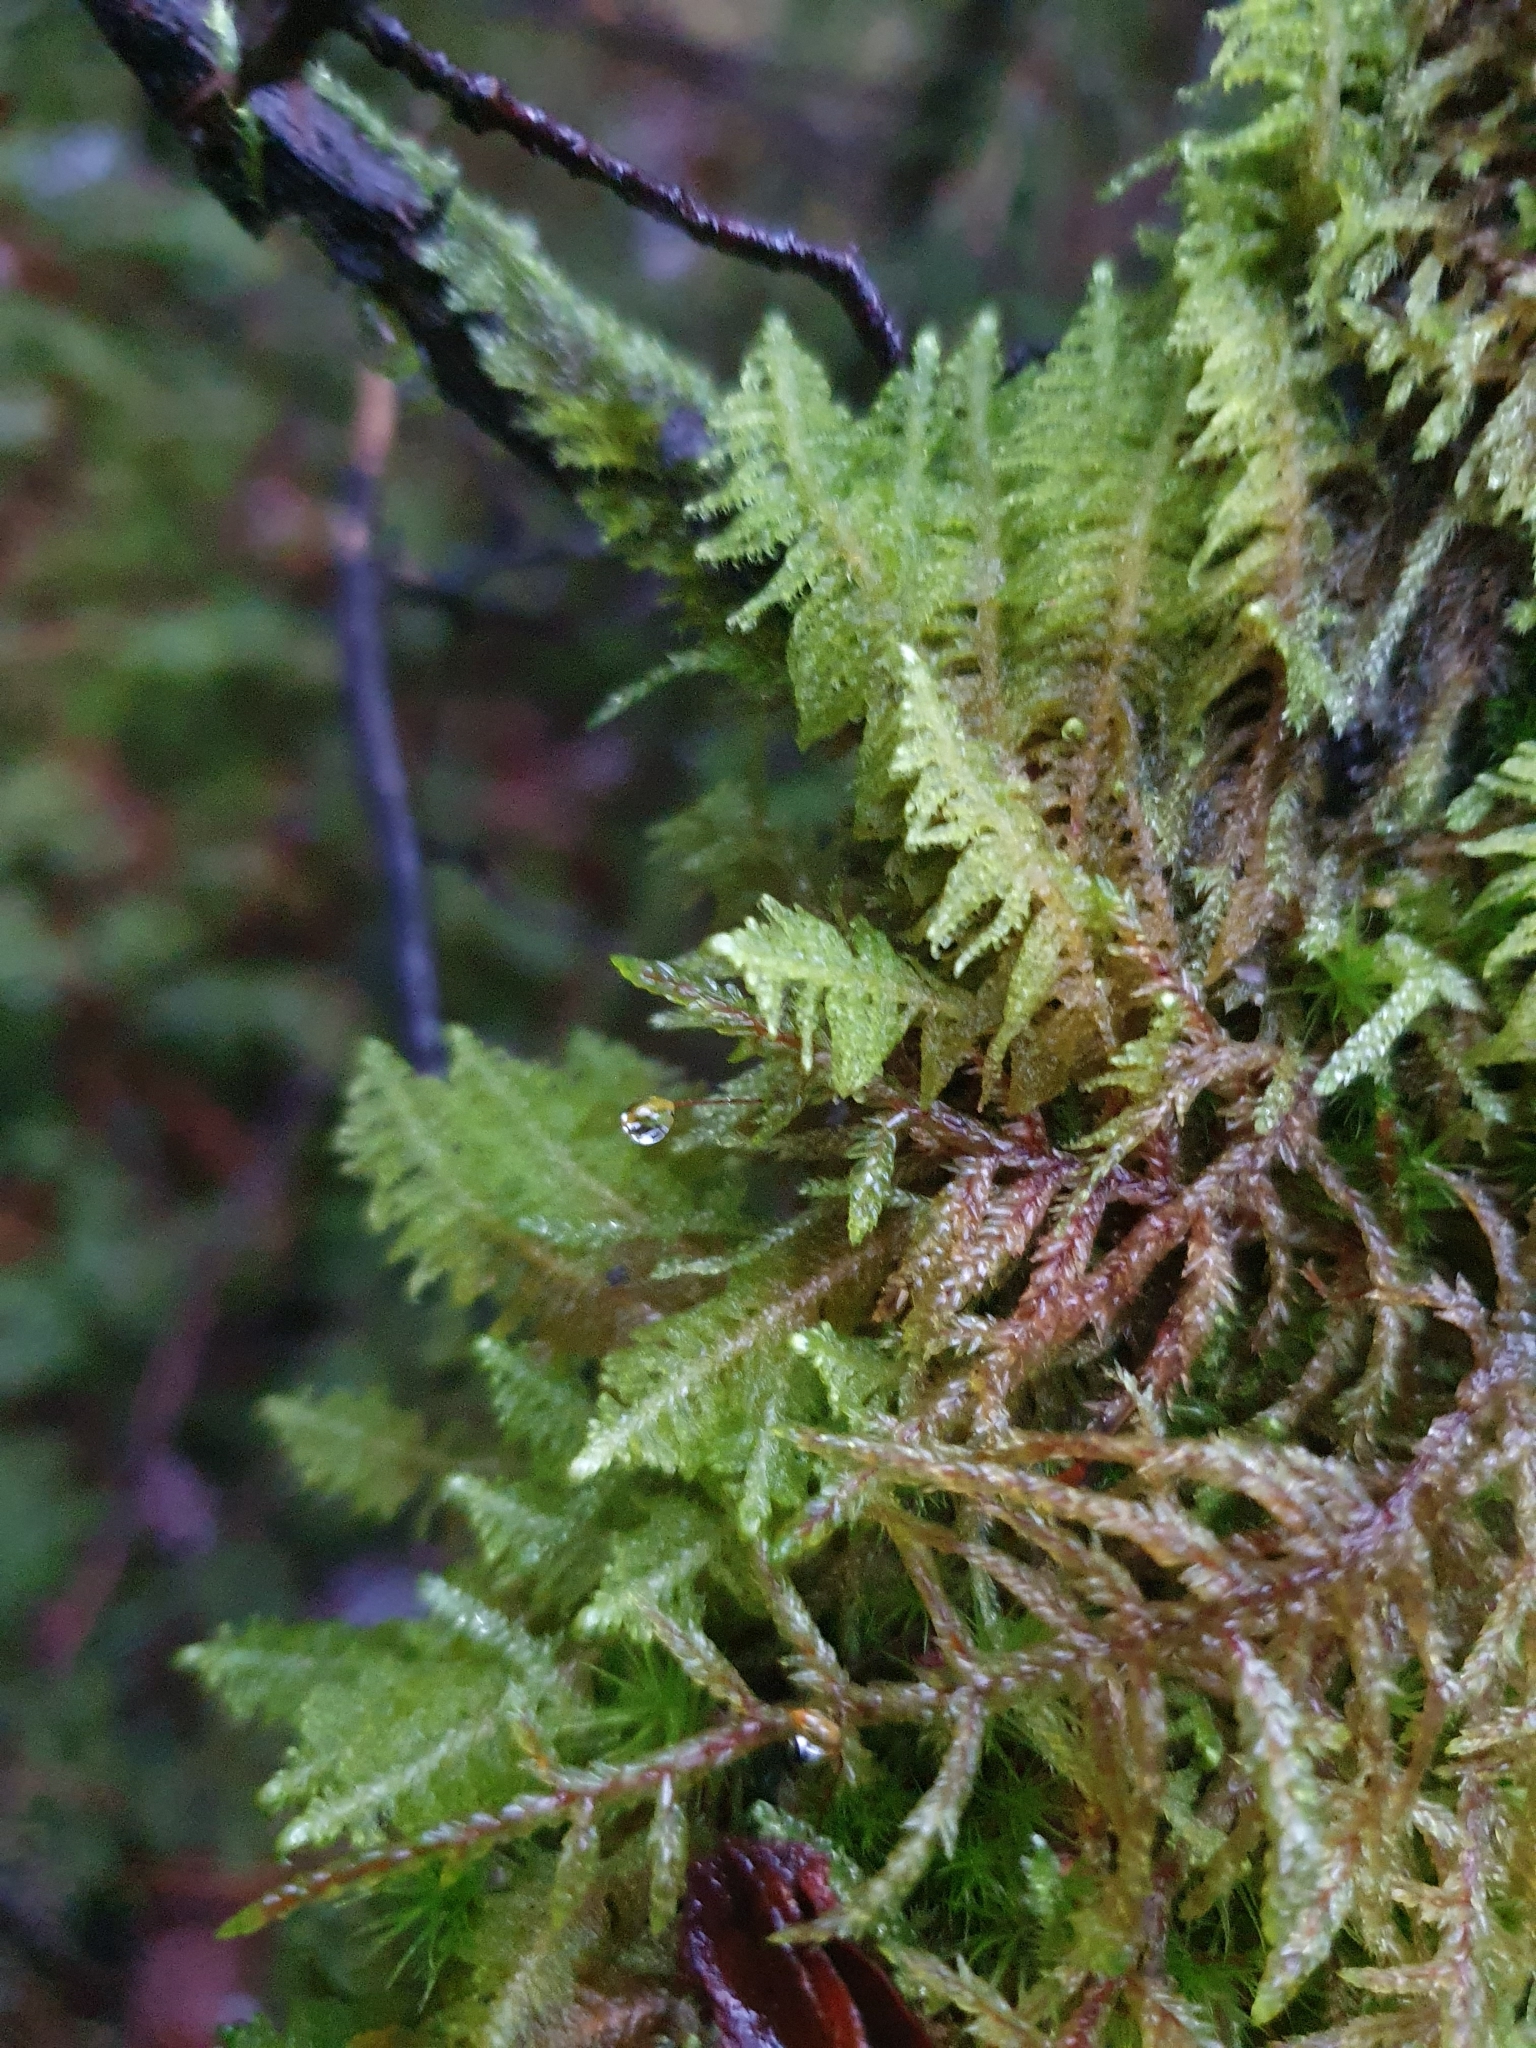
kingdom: Plantae
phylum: Bryophyta
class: Bryopsida
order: Hypnales
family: Pylaisiaceae
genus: Ptilium
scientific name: Ptilium crista-castrensis
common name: Knight's plume moss
